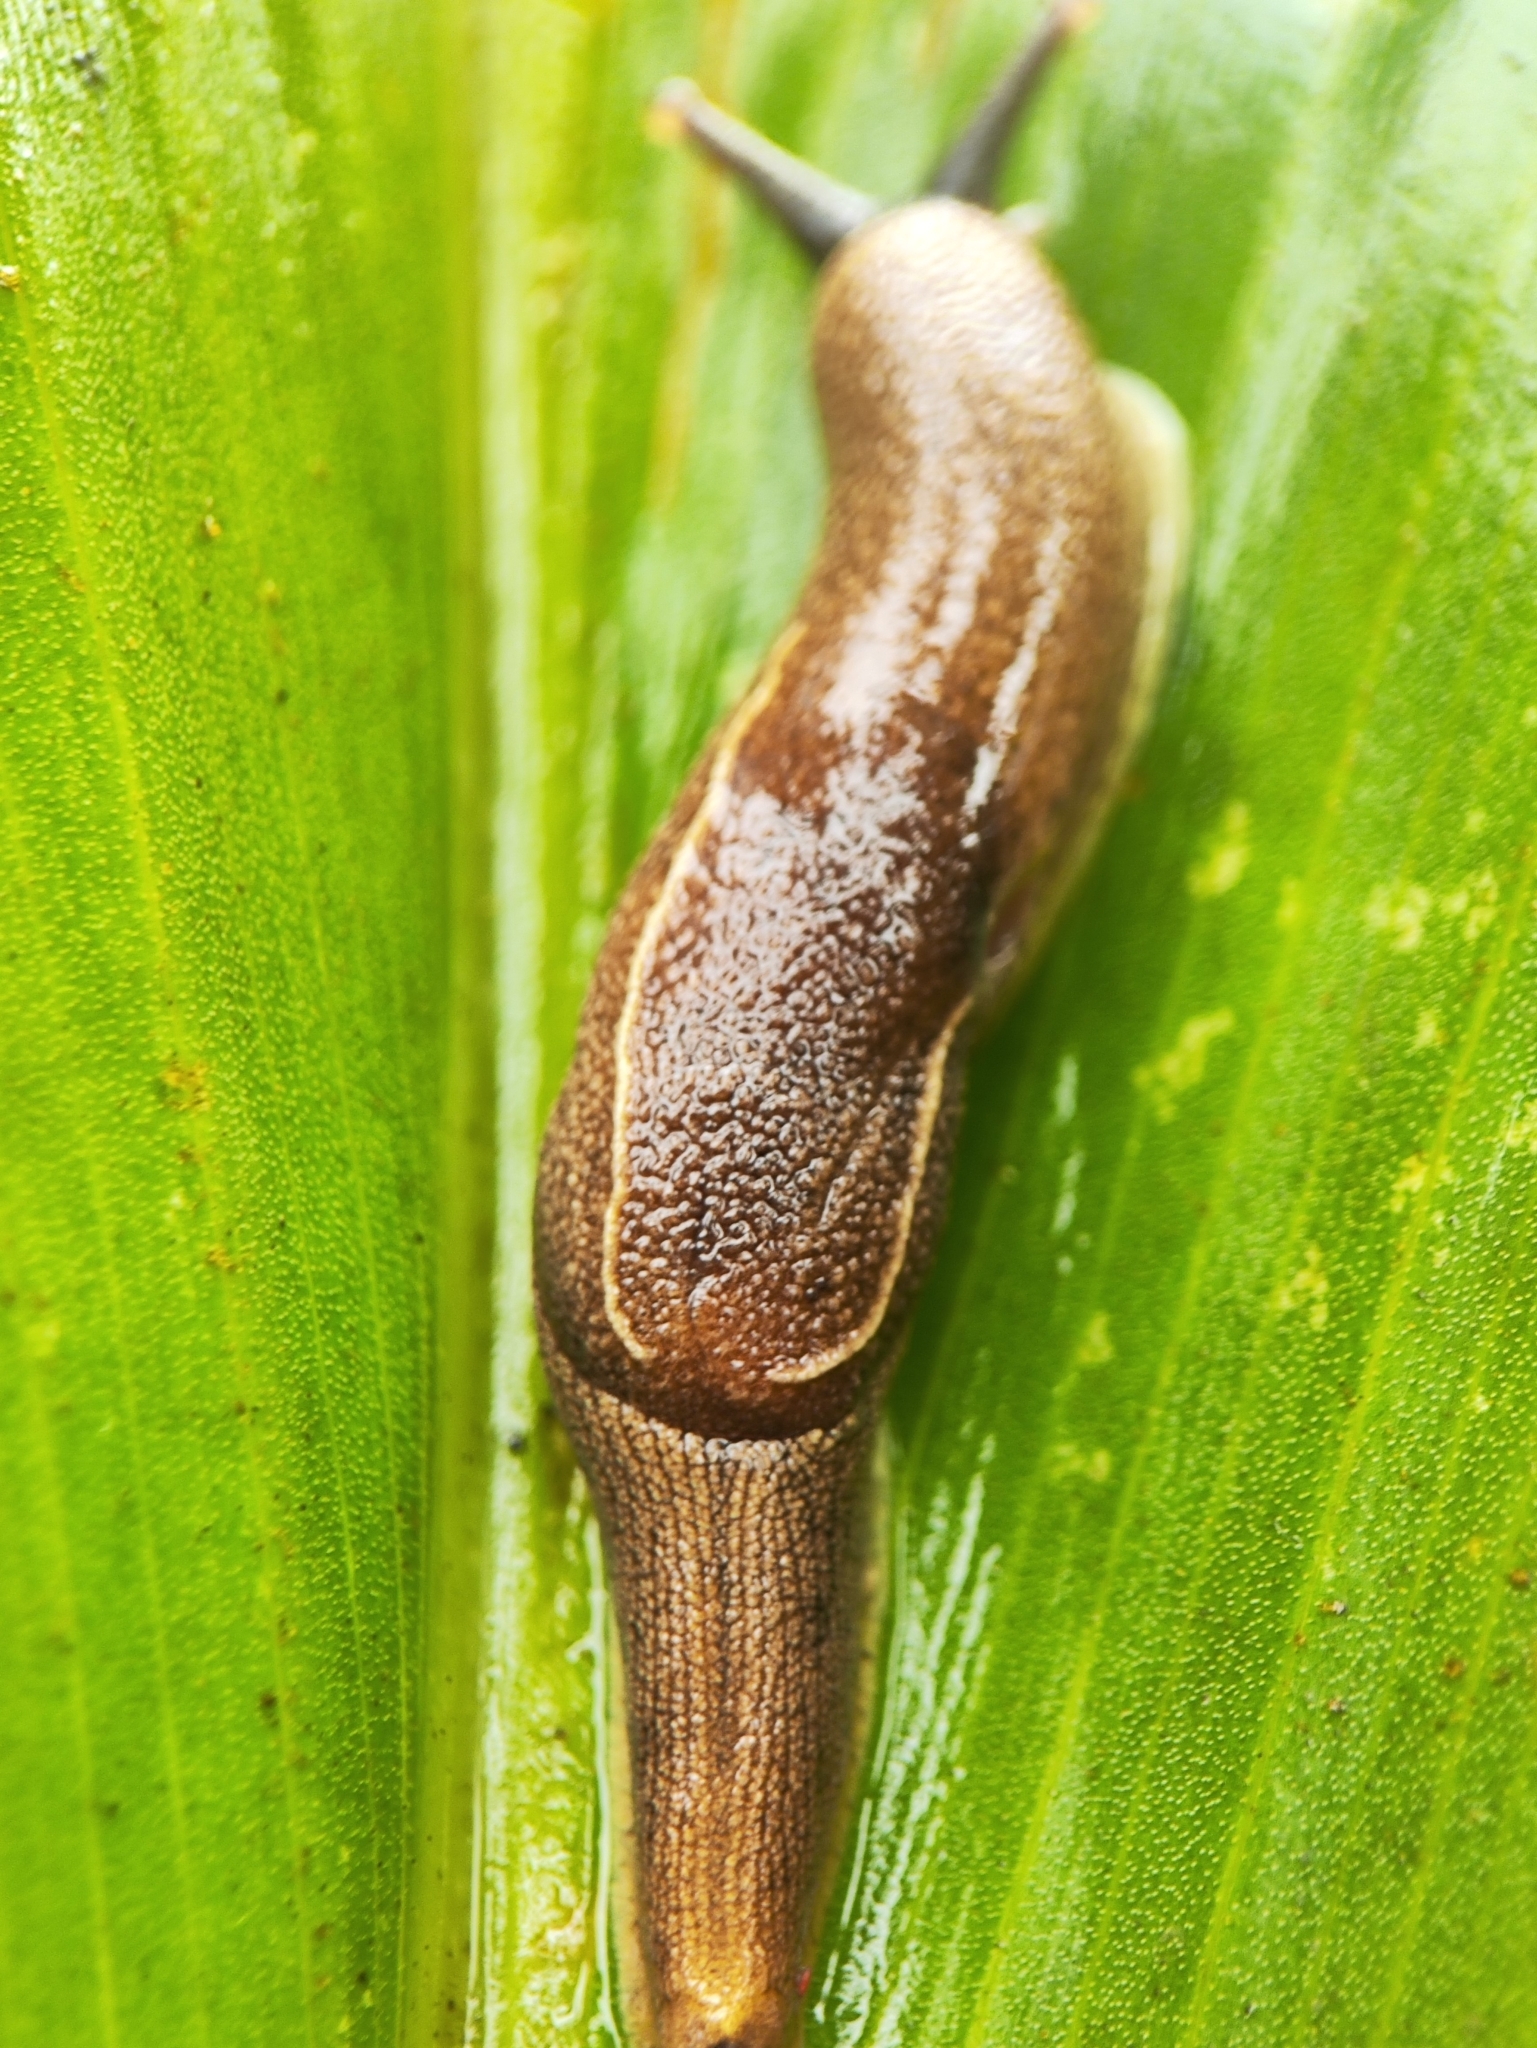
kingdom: Animalia
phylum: Mollusca
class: Gastropoda
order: Stylommatophora
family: Ariophantidae
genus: Mariaella
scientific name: Mariaella dussumieri
